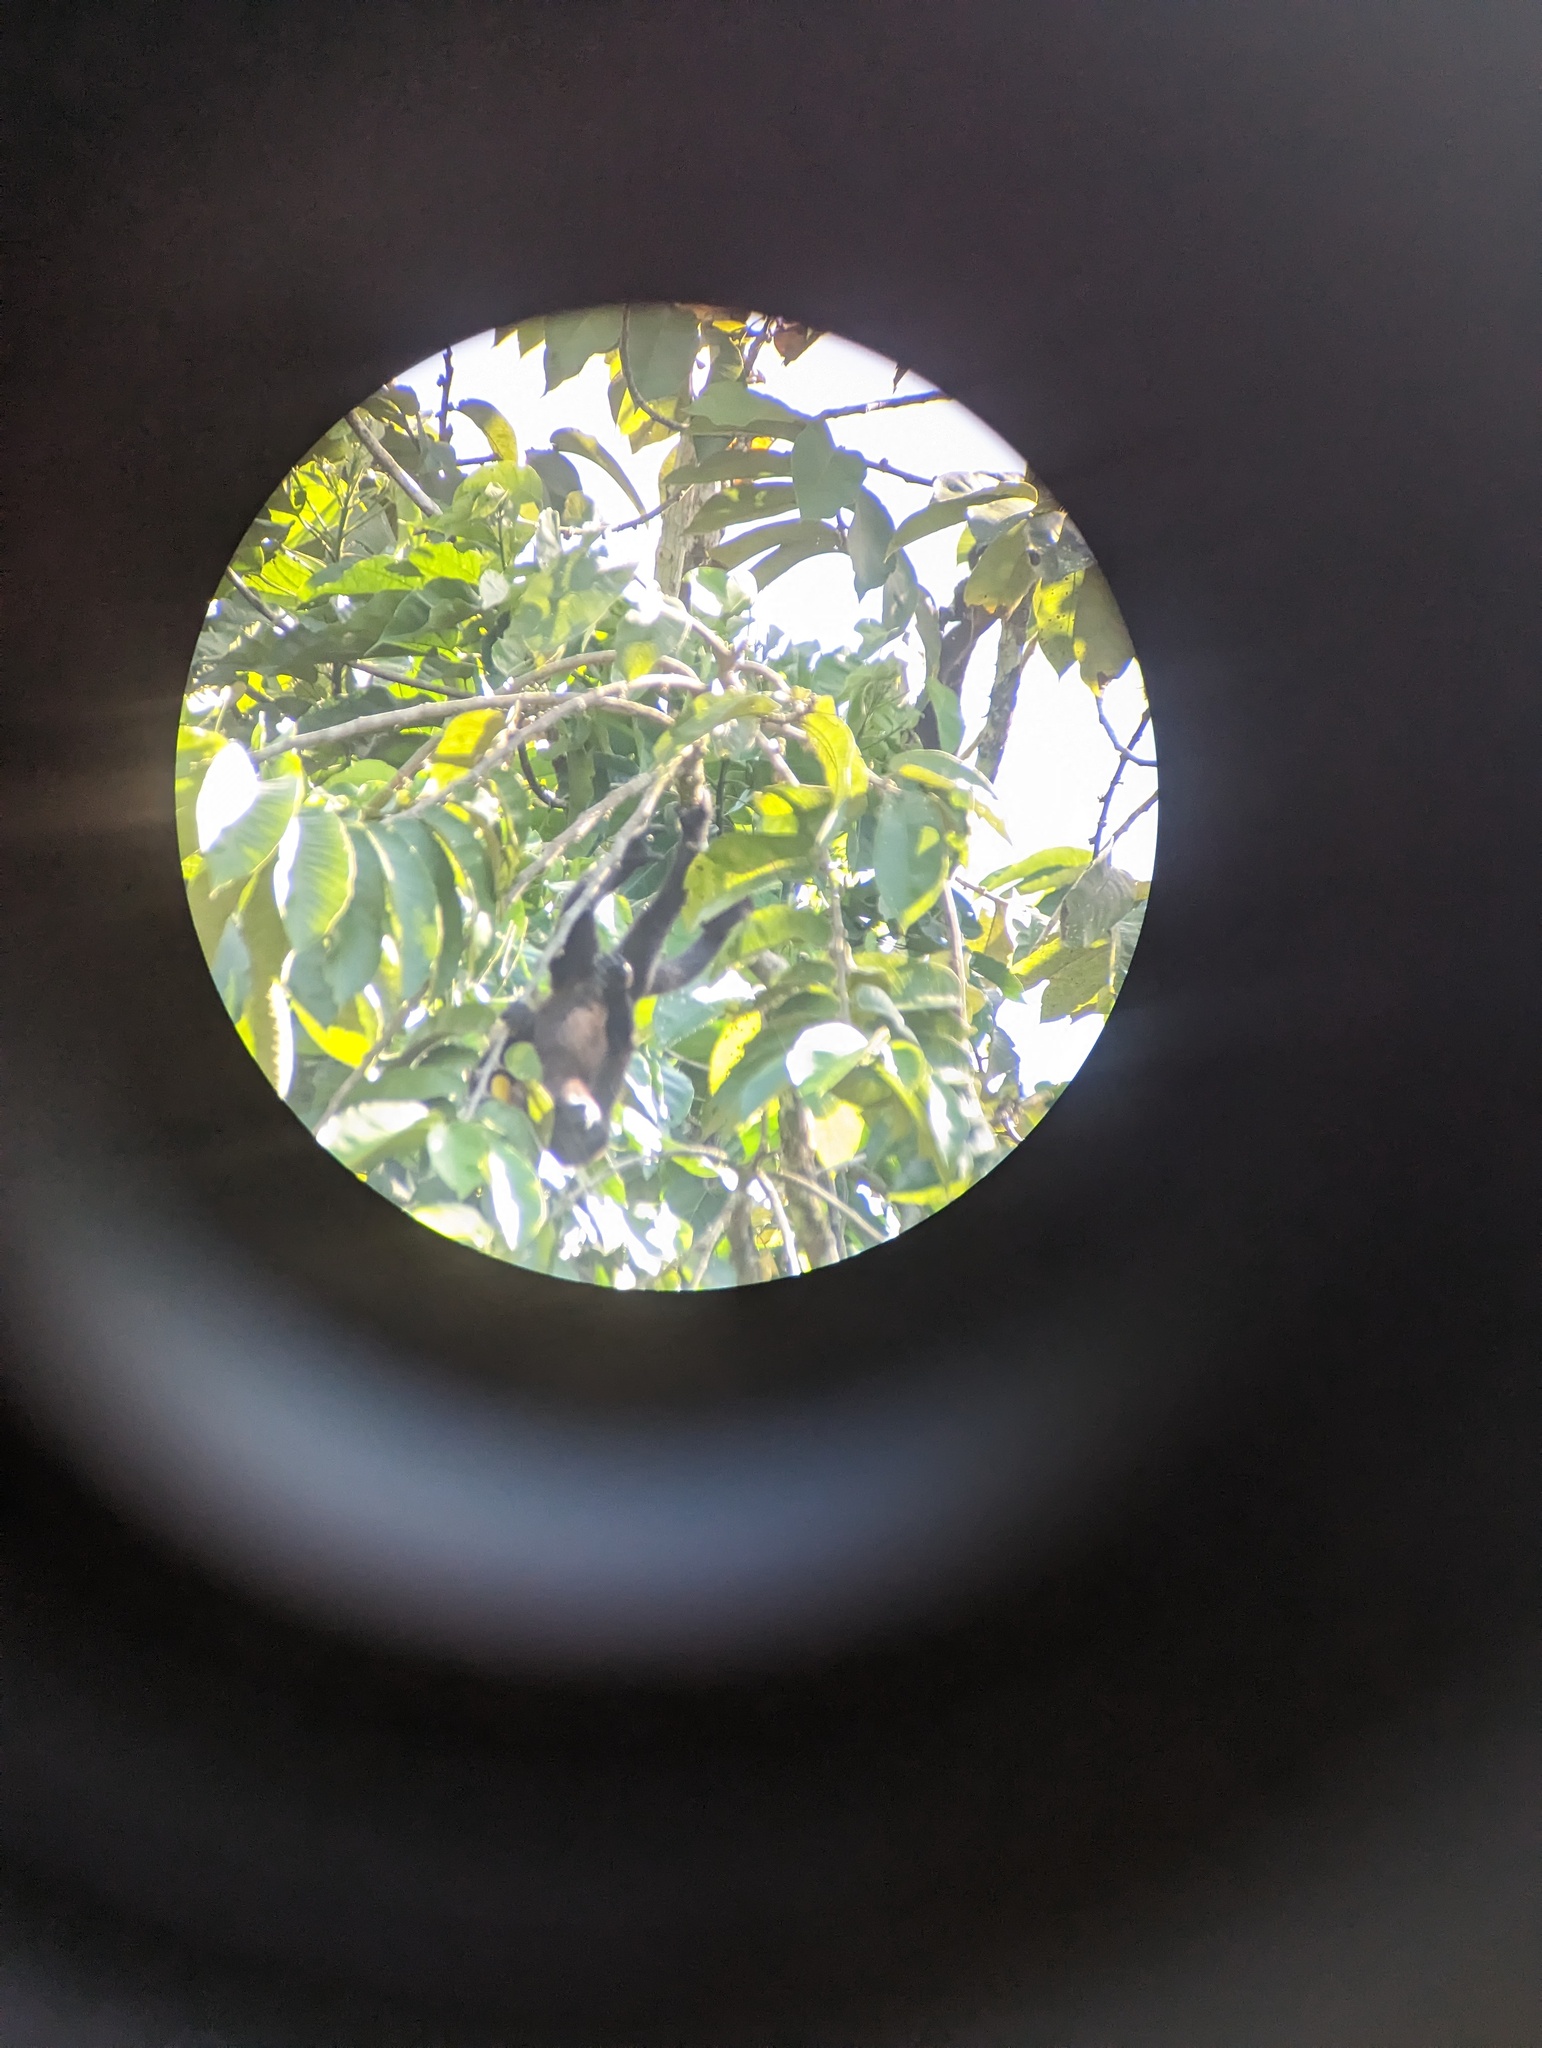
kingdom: Animalia
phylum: Chordata
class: Mammalia
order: Primates
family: Atelidae
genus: Alouatta
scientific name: Alouatta palliata
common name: Mantled howler
